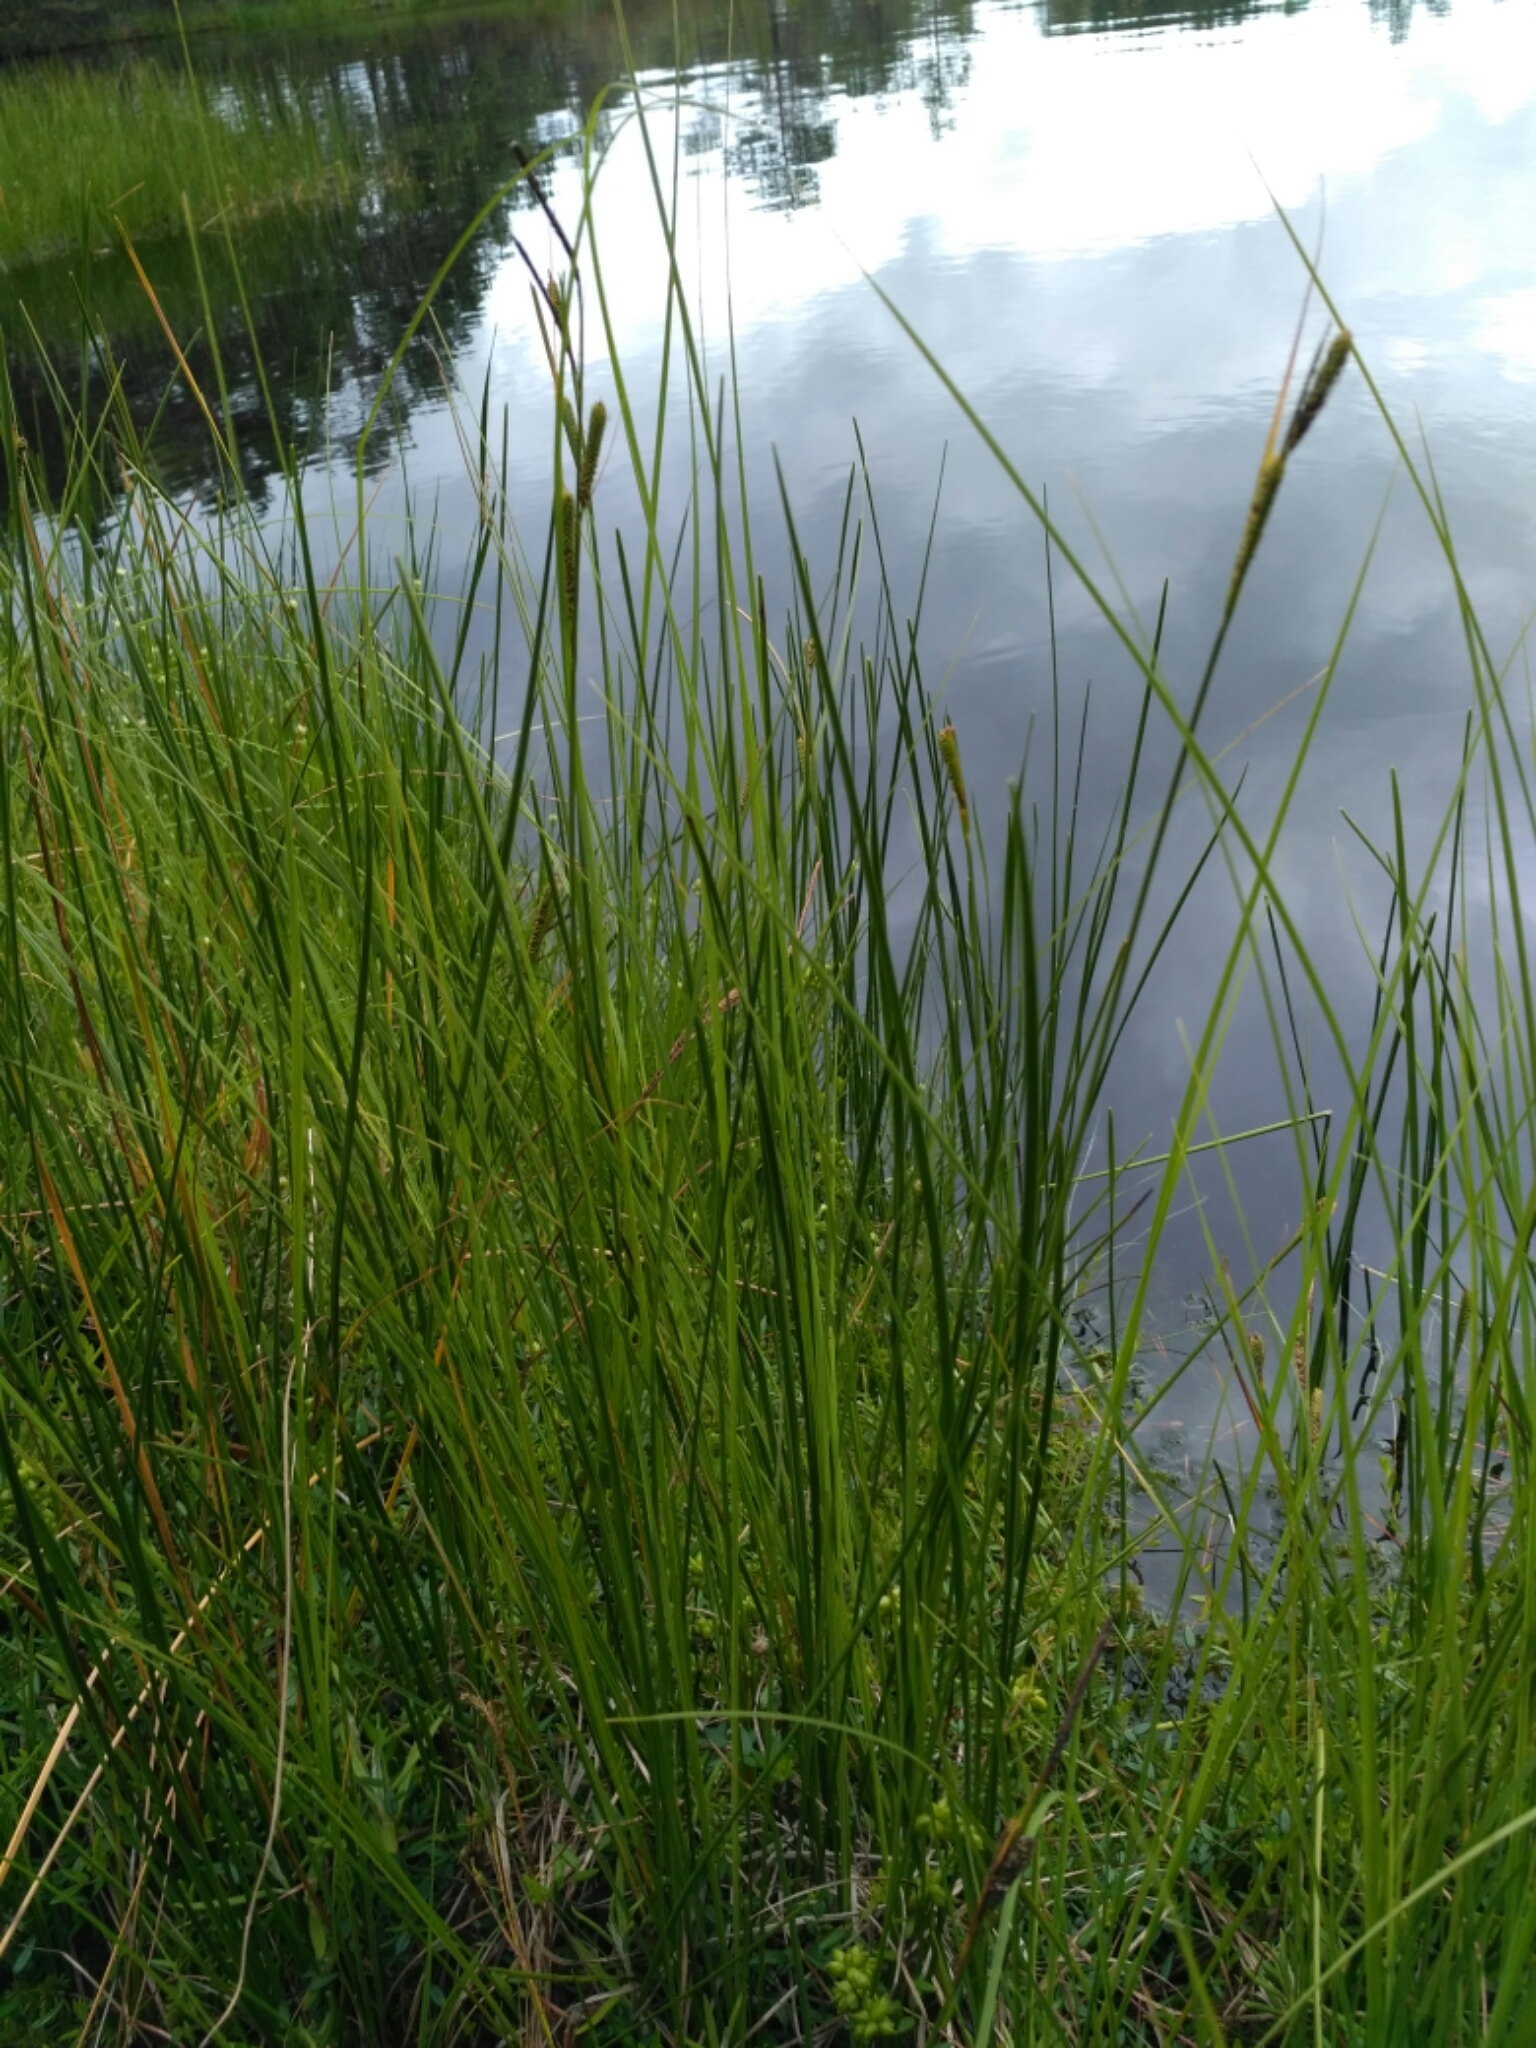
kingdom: Plantae
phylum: Tracheophyta
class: Liliopsida
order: Poales
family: Cyperaceae
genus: Carex
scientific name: Carex nigra
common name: Common sedge
